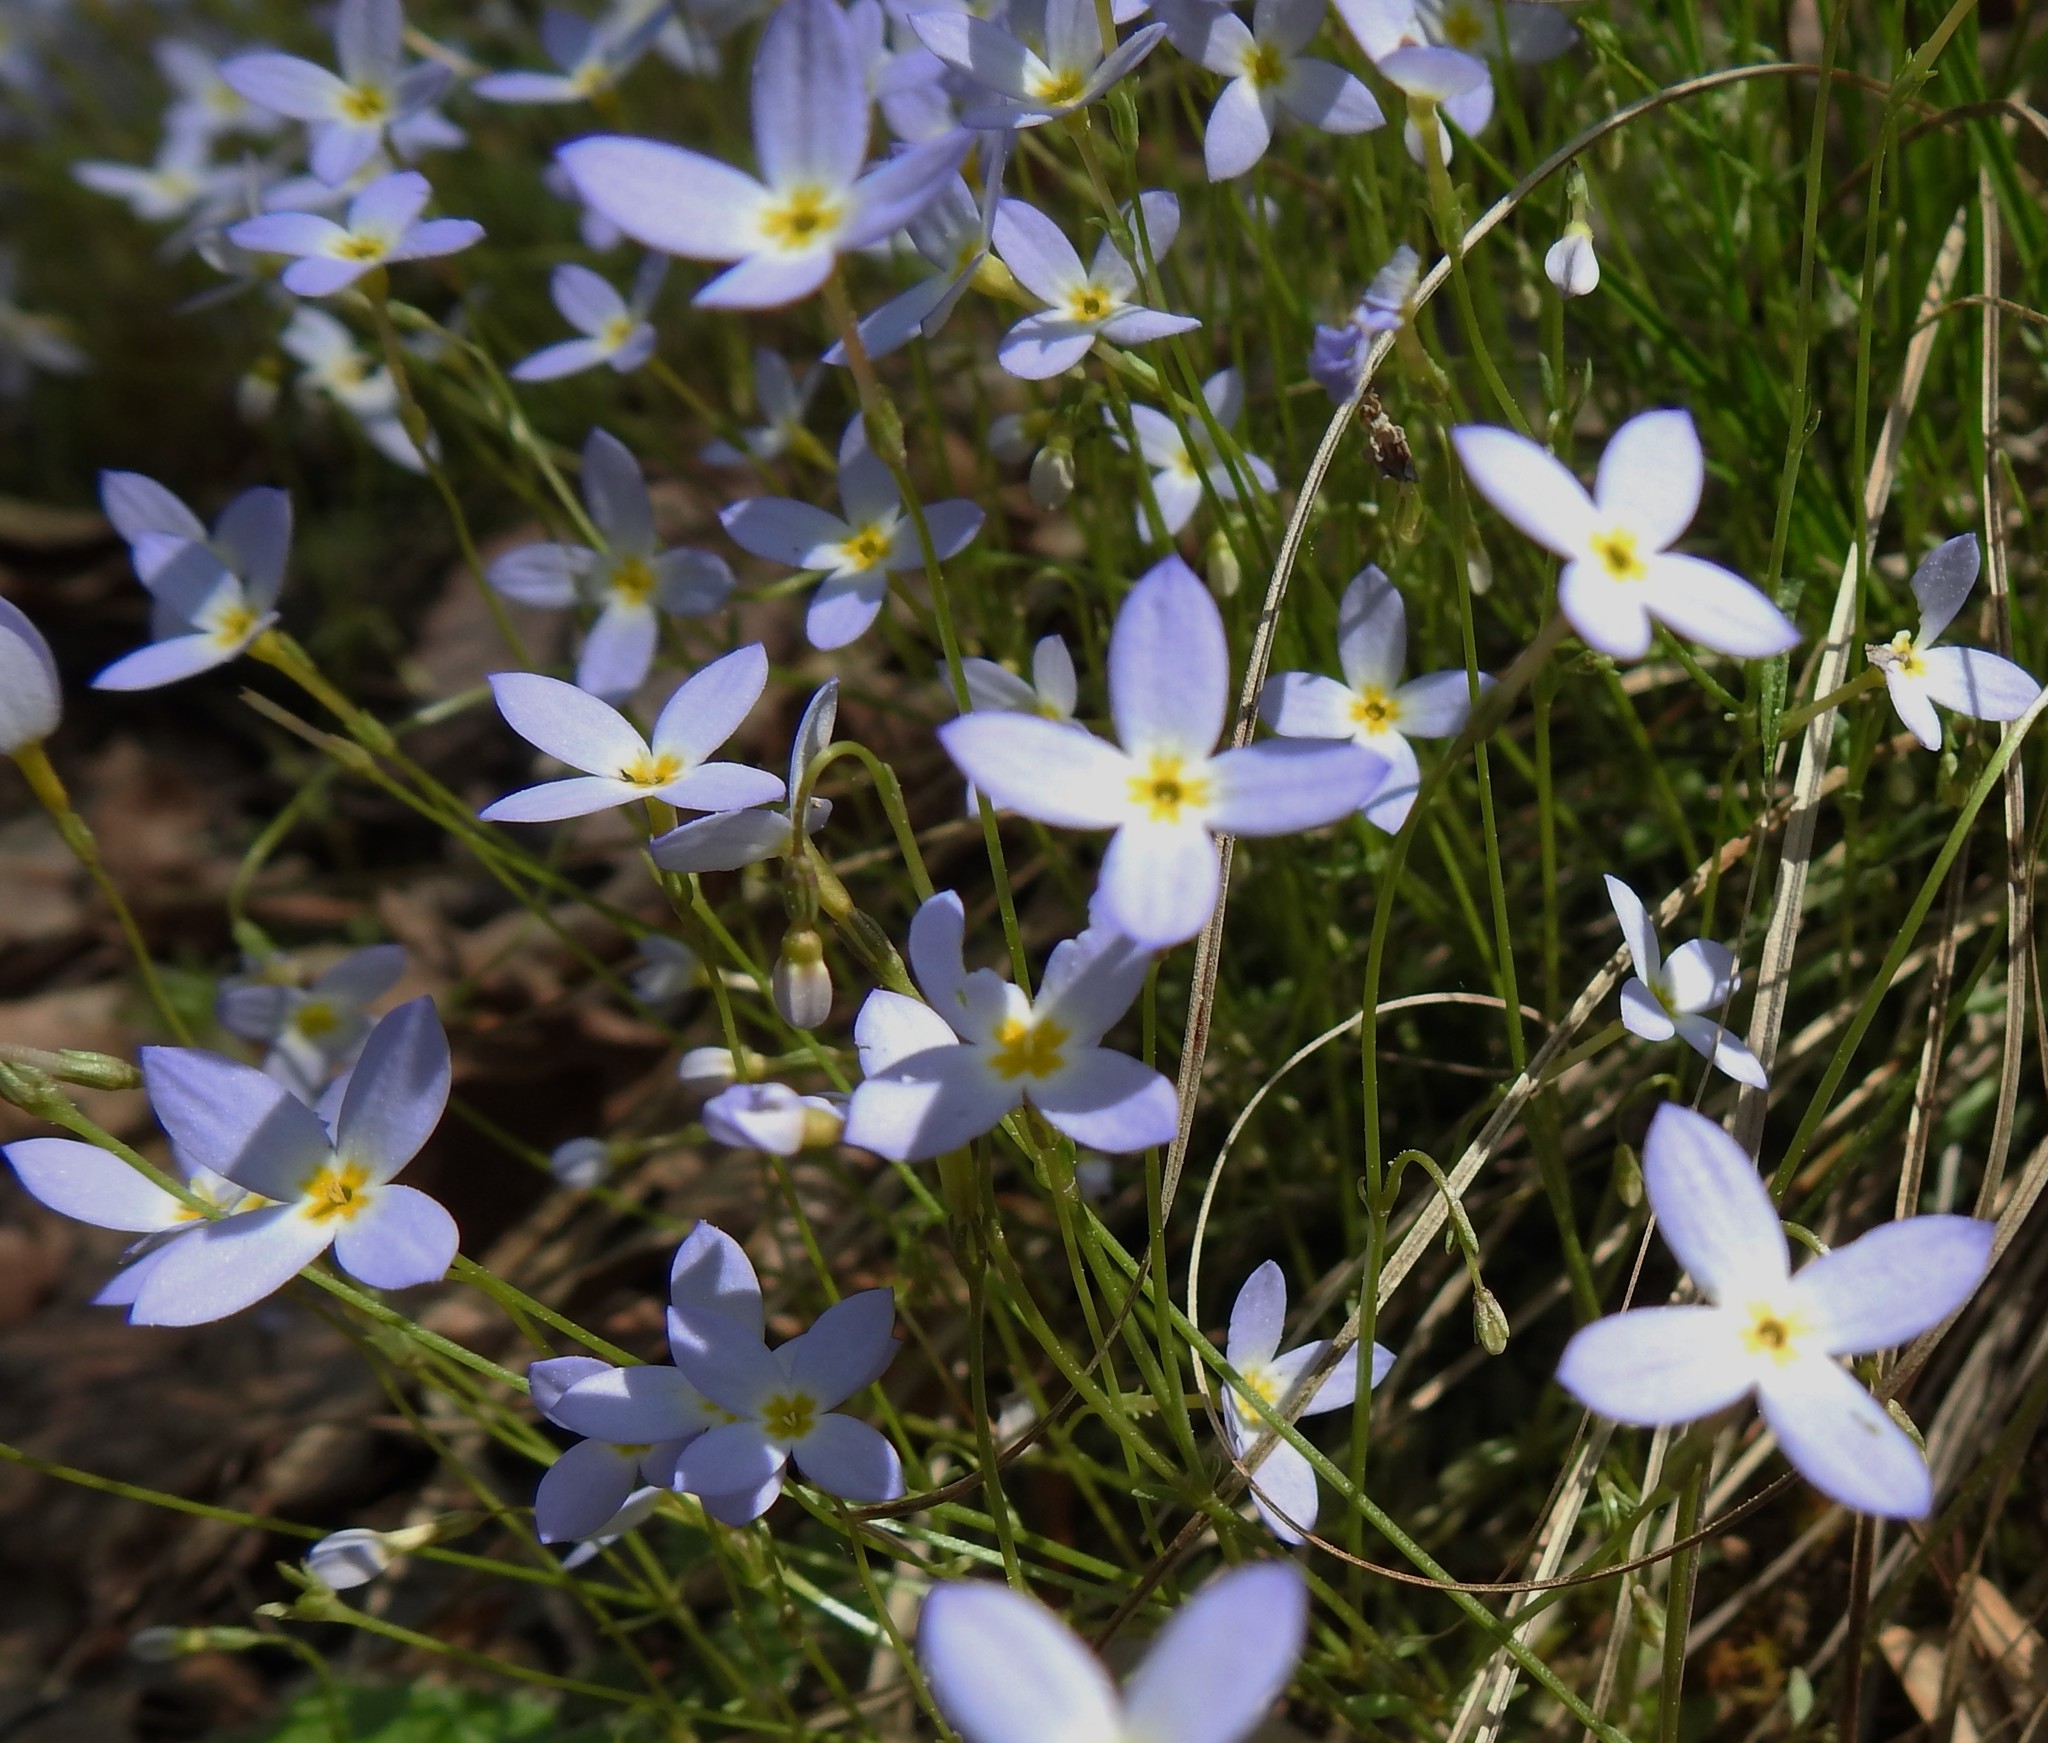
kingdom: Plantae
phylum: Tracheophyta
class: Magnoliopsida
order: Gentianales
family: Rubiaceae
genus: Houstonia
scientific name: Houstonia caerulea
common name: Bluets
